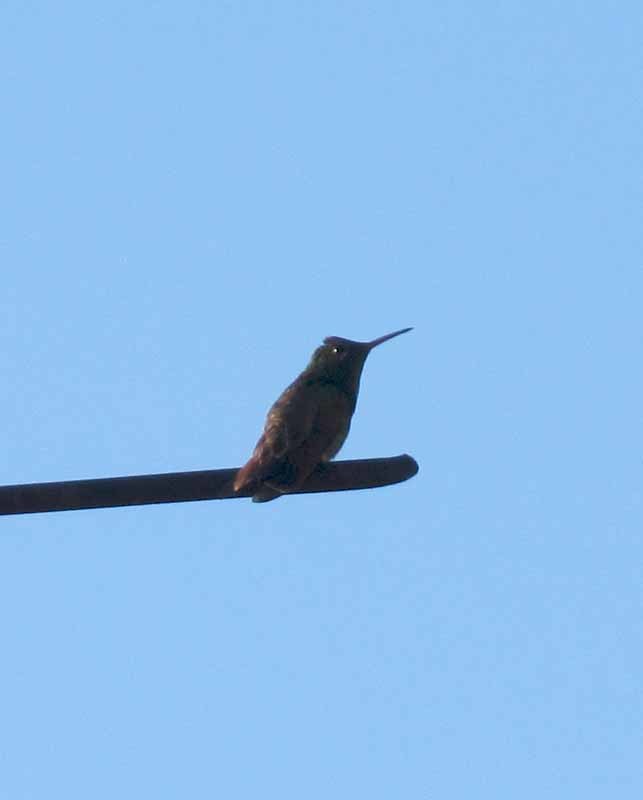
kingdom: Animalia
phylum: Chordata
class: Aves
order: Apodiformes
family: Trochilidae
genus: Saucerottia
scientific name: Saucerottia beryllina
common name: Berylline hummingbird
